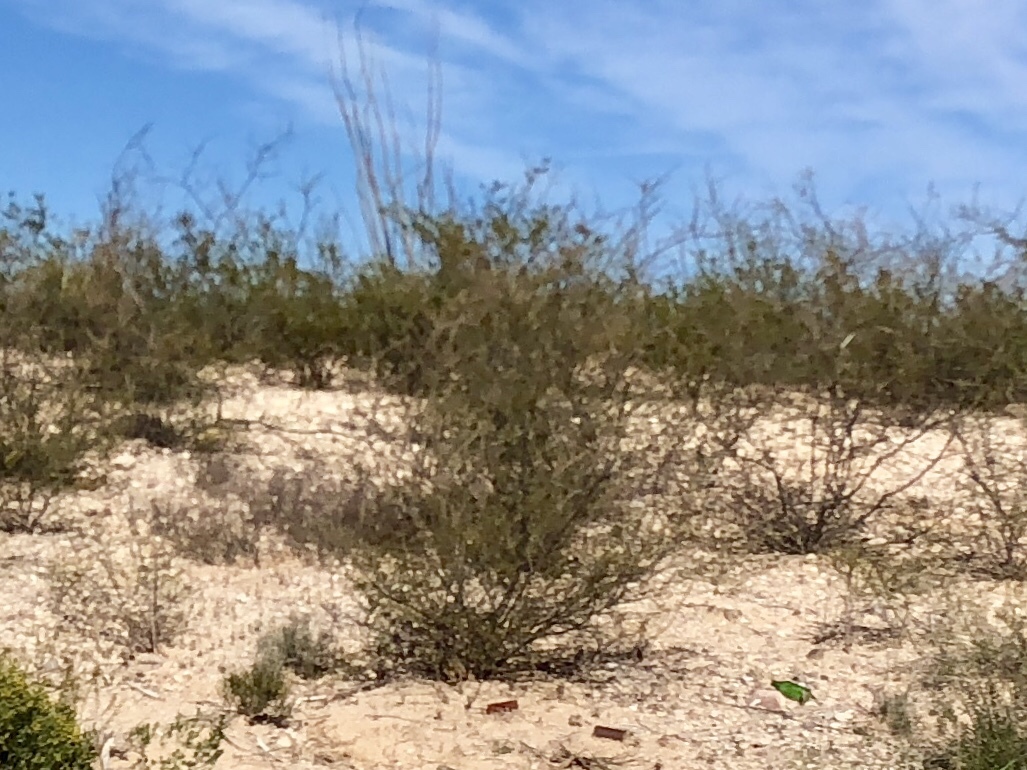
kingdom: Plantae
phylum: Tracheophyta
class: Magnoliopsida
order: Zygophyllales
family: Zygophyllaceae
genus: Larrea
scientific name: Larrea tridentata
